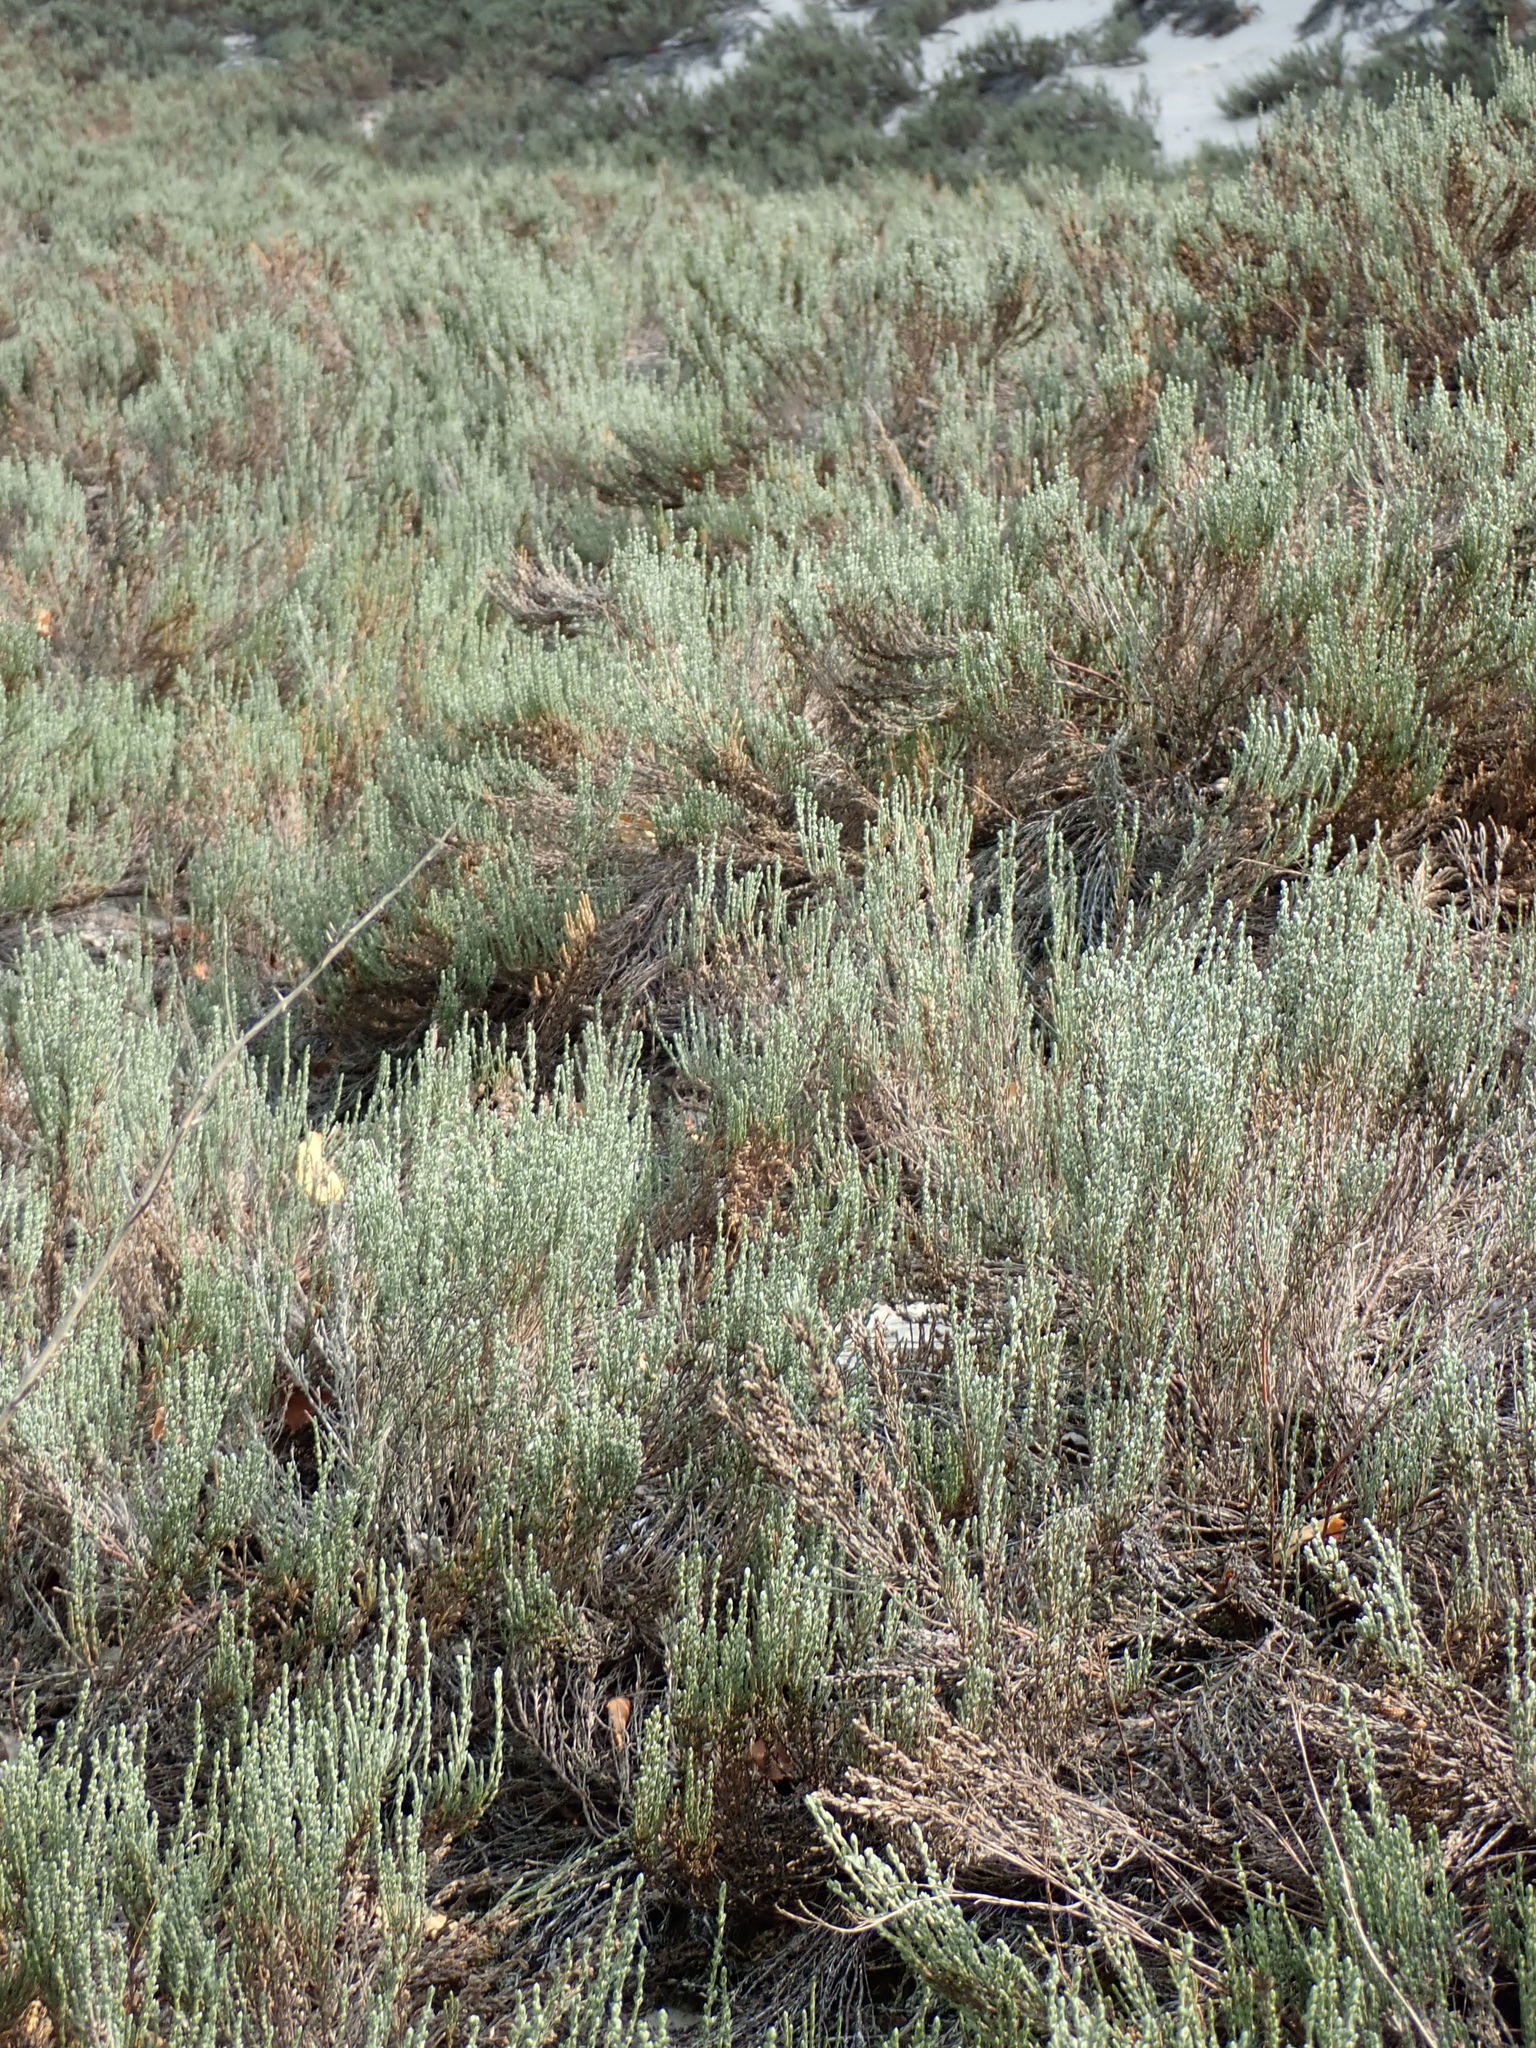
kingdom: Plantae
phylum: Tracheophyta
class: Magnoliopsida
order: Malvales
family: Cistaceae
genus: Hudsonia
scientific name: Hudsonia tomentosa
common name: Beach-heath
